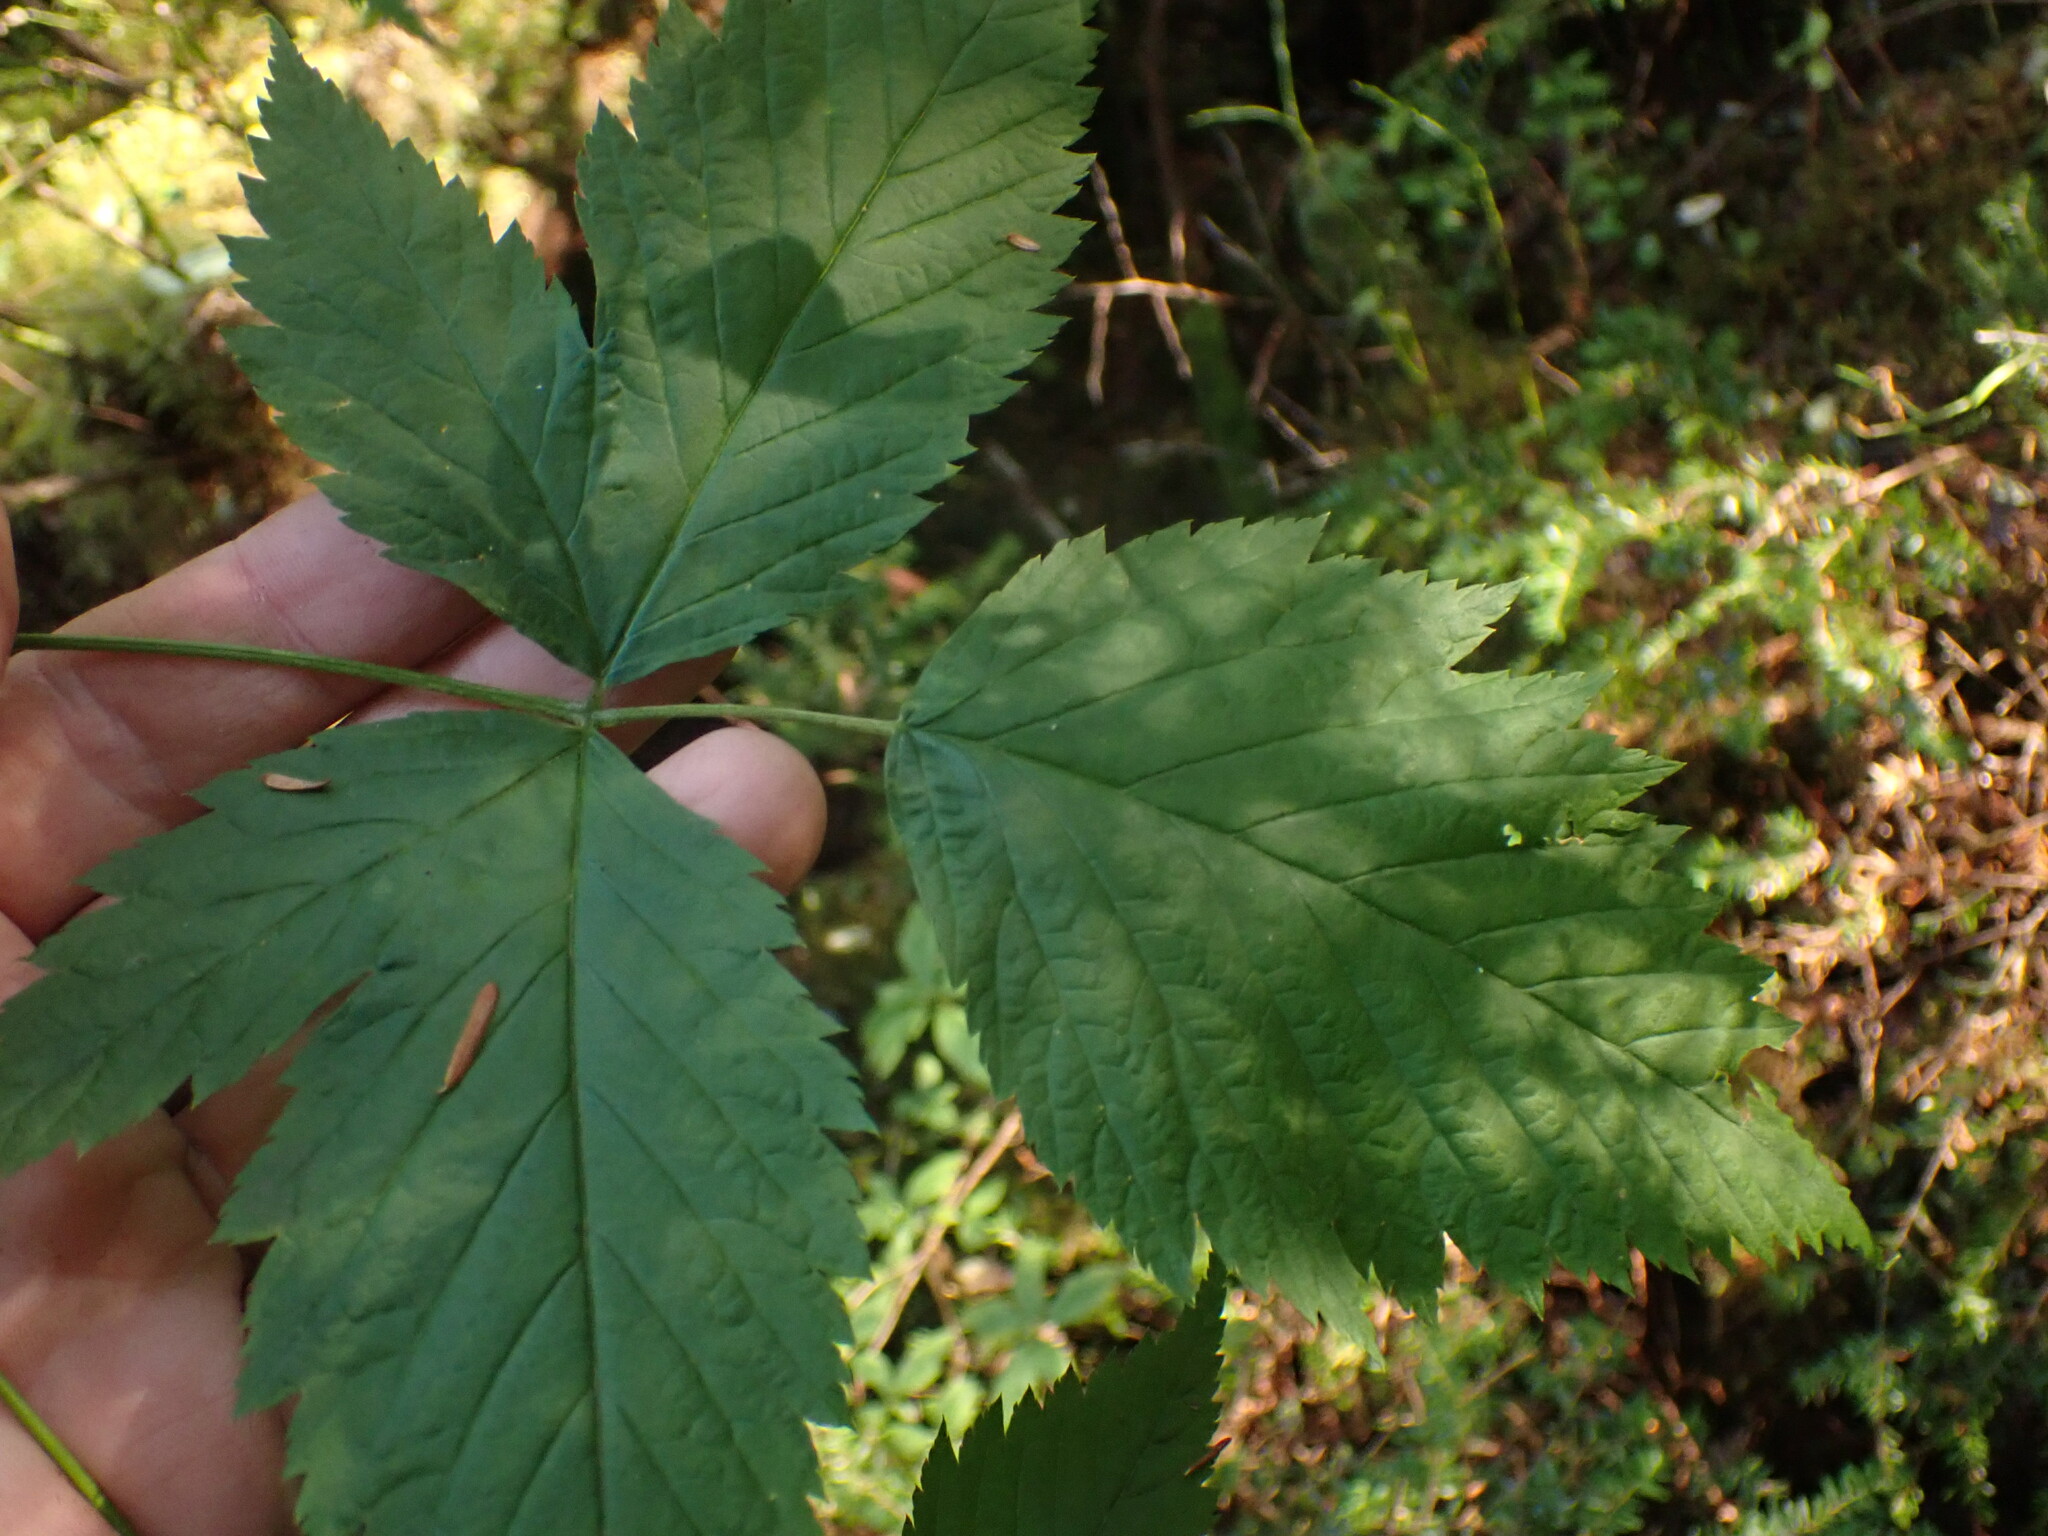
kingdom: Plantae
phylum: Tracheophyta
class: Magnoliopsida
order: Rosales
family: Rosaceae
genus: Rubus
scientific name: Rubus spectabilis
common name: Salmonberry
